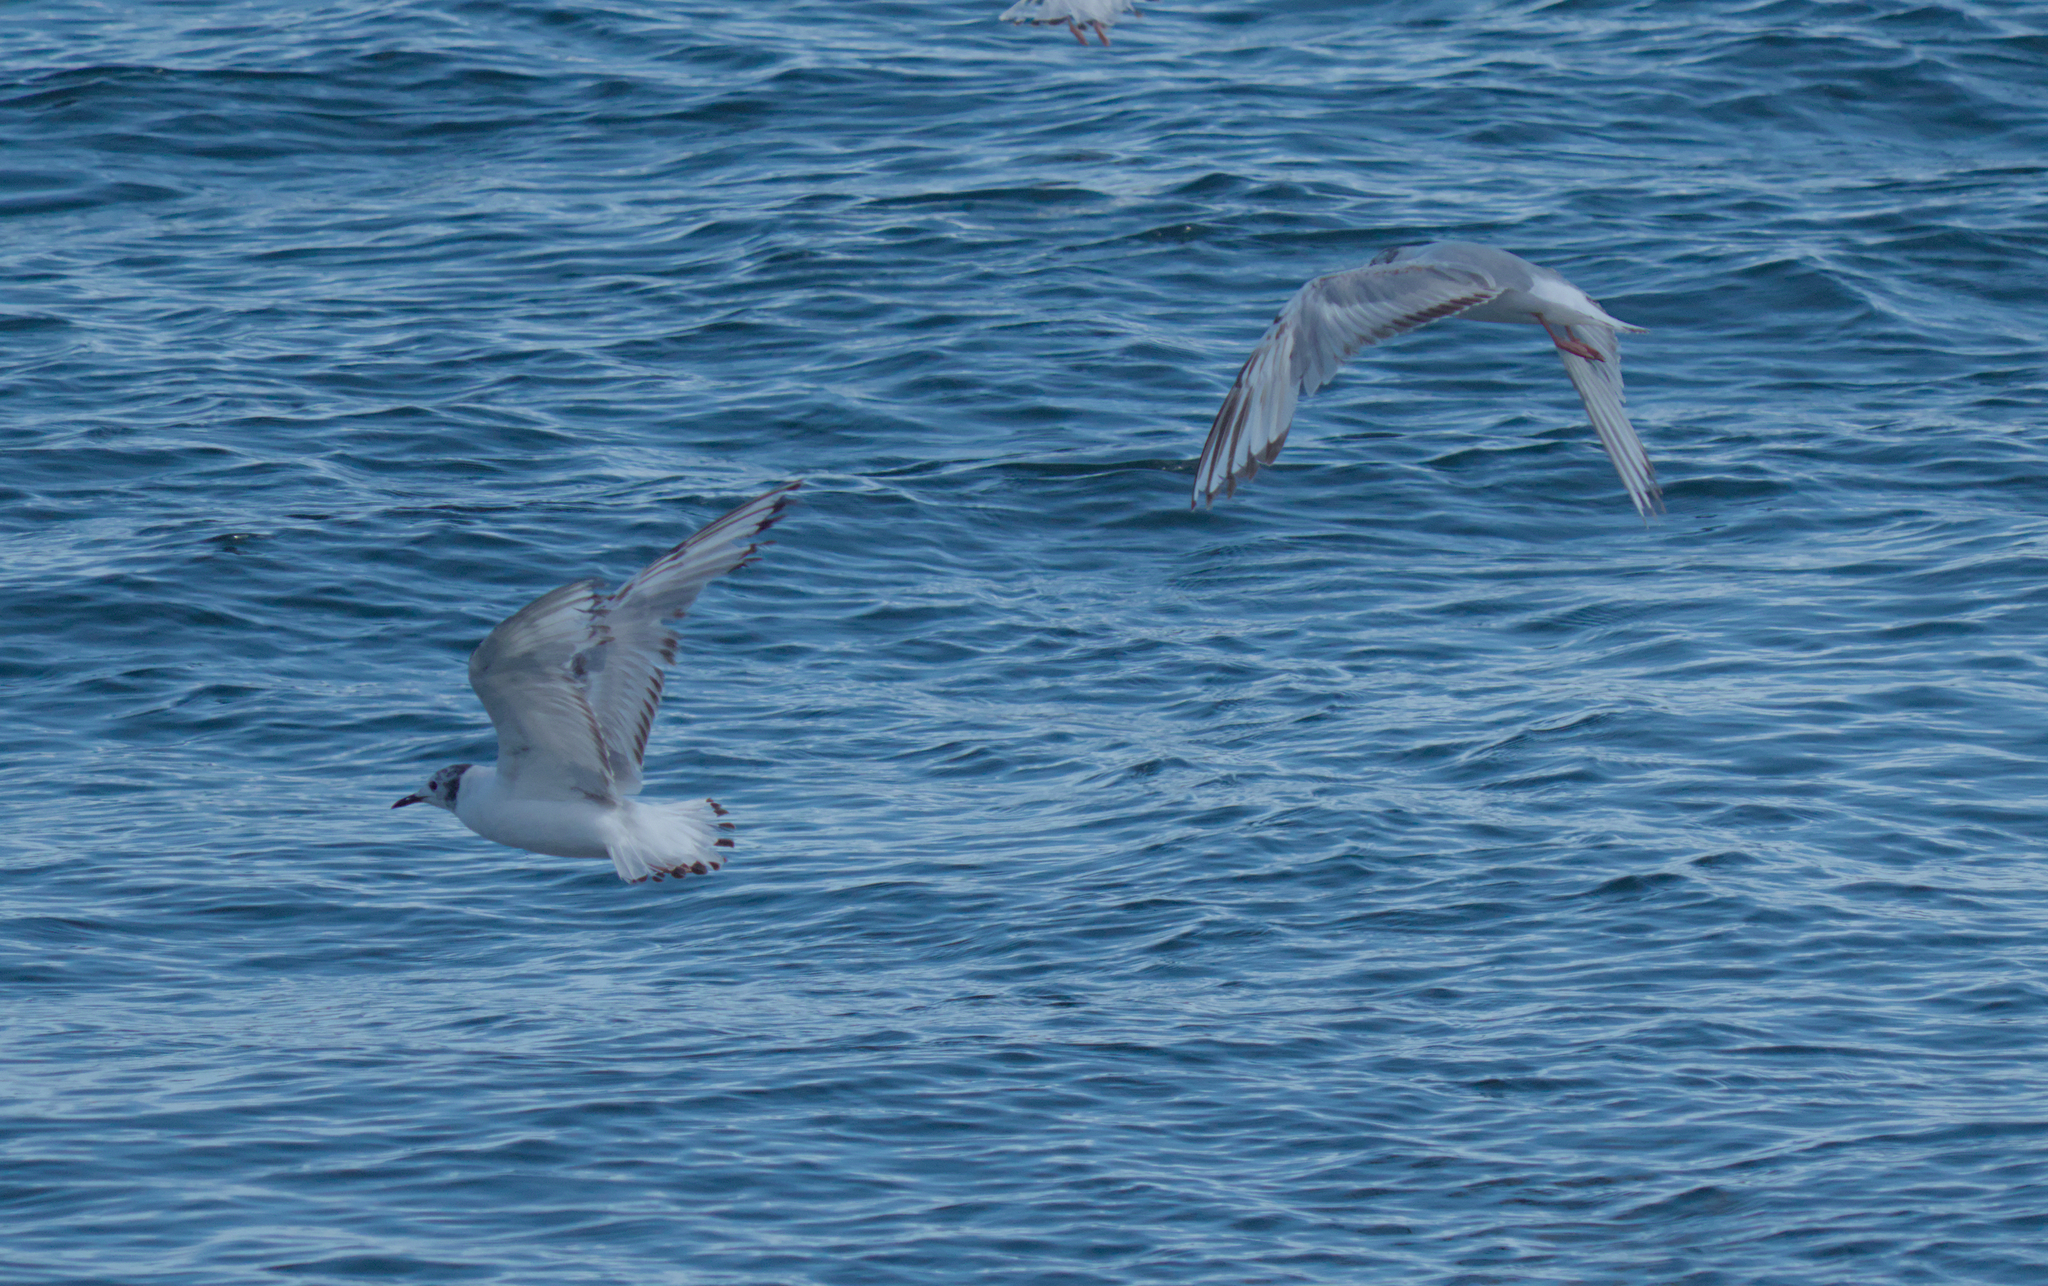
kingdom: Animalia
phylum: Chordata
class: Aves
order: Charadriiformes
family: Laridae
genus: Chroicocephalus
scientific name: Chroicocephalus philadelphia
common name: Bonaparte's gull
